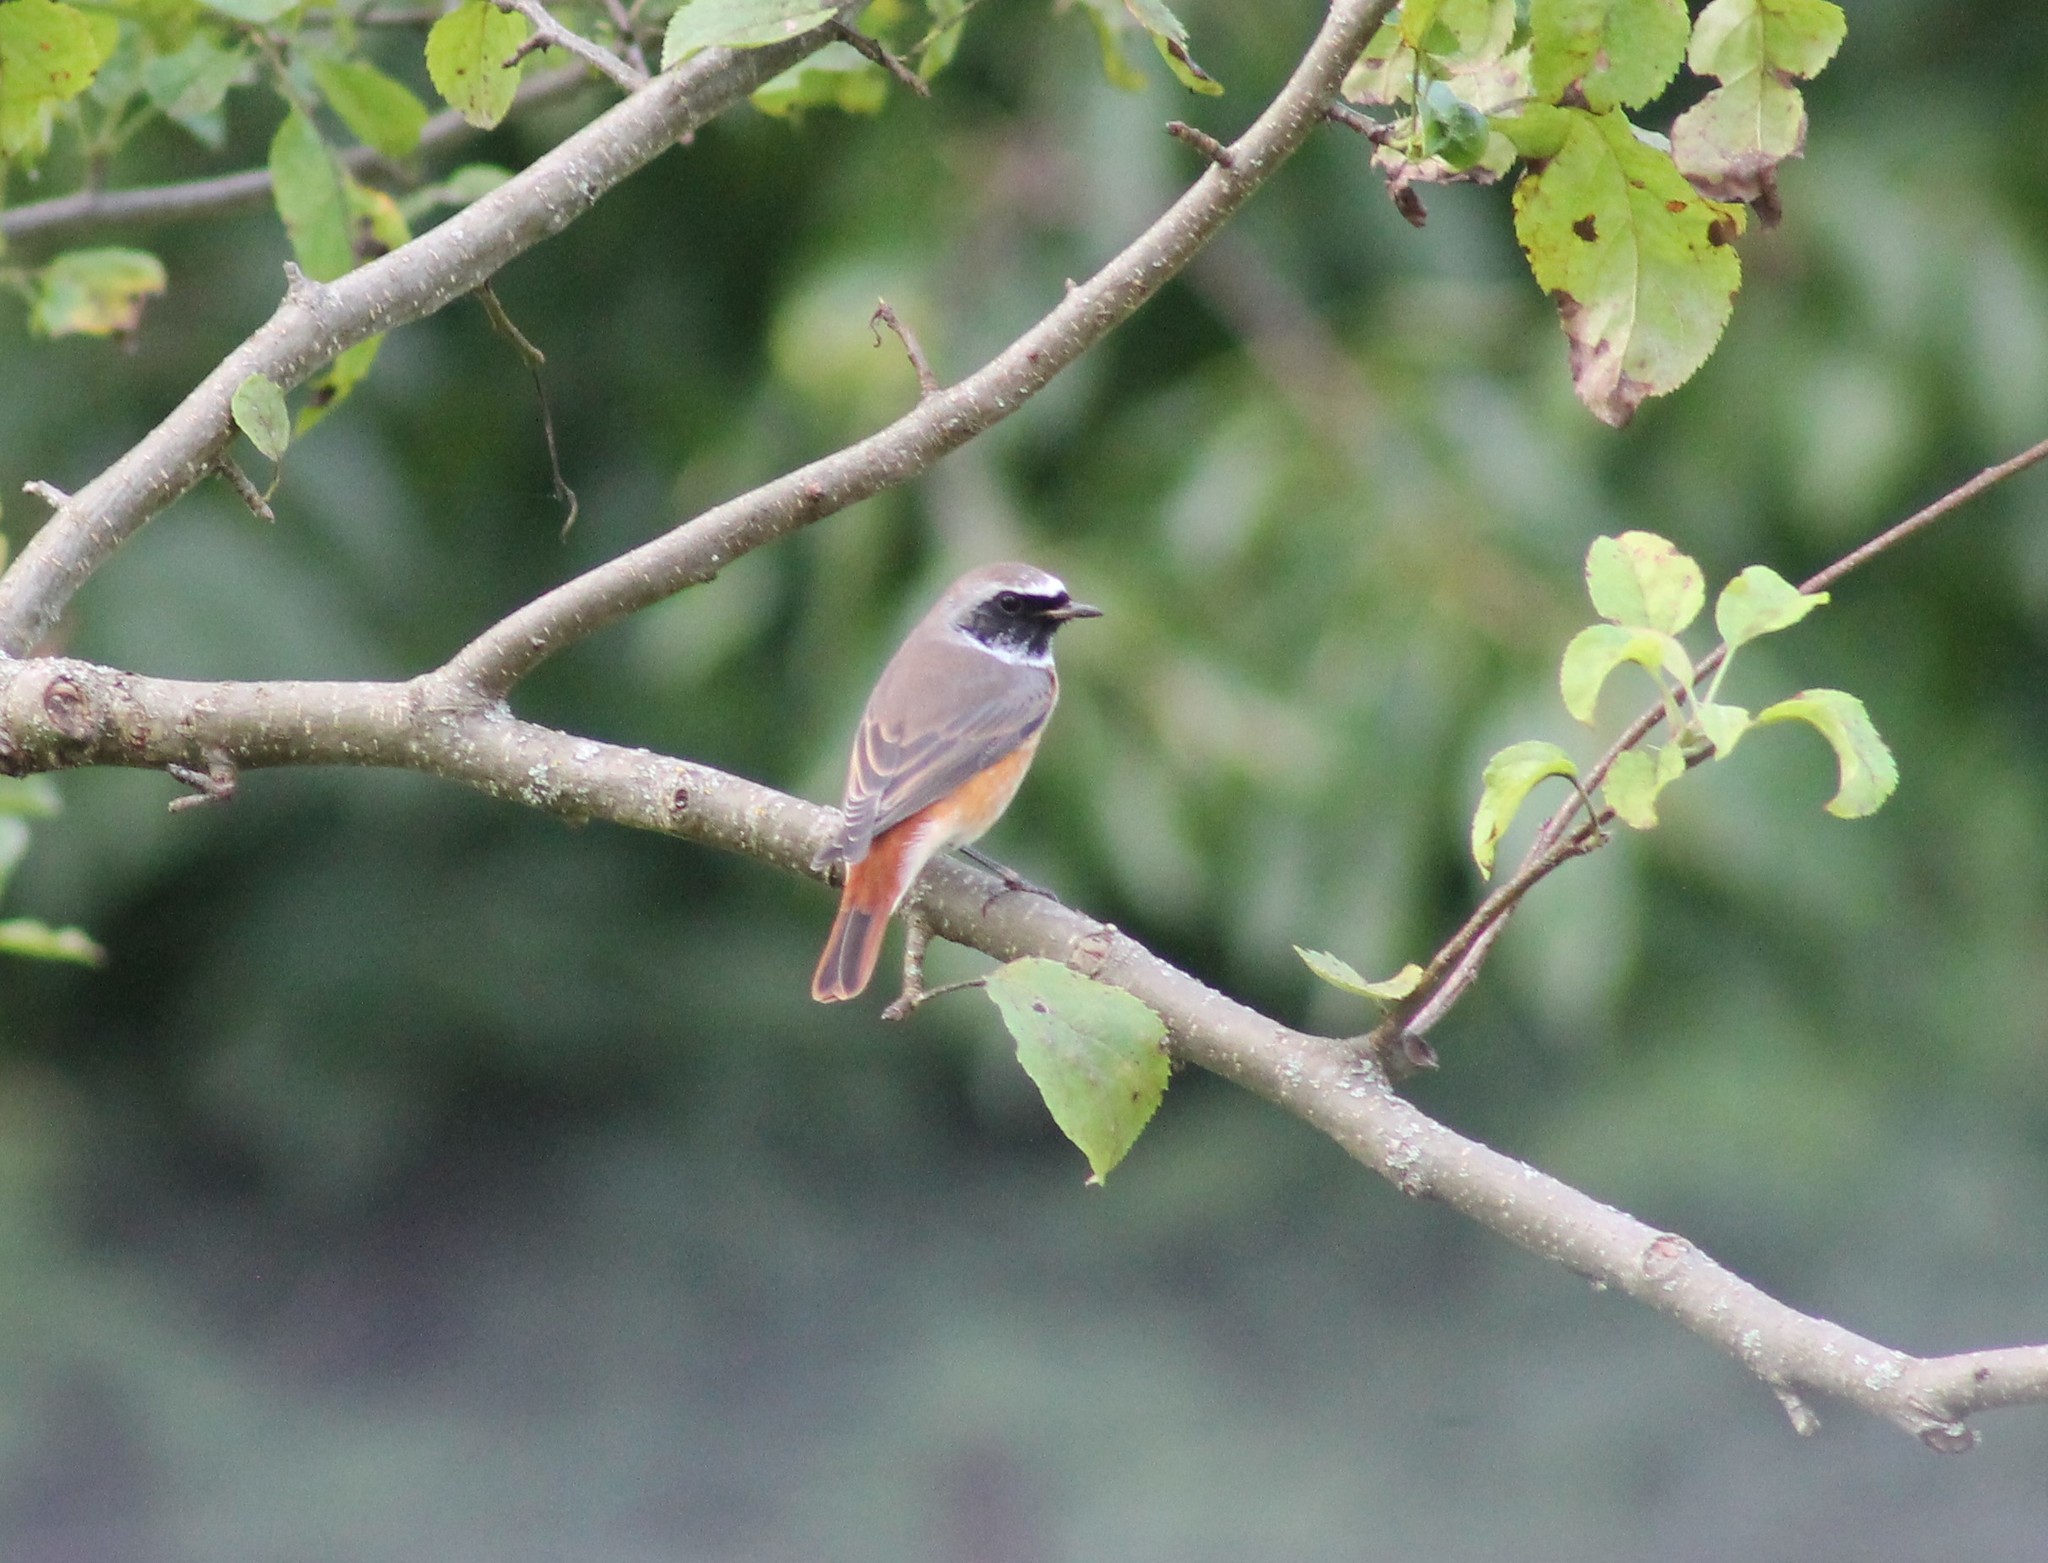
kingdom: Animalia
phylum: Chordata
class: Aves
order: Passeriformes
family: Muscicapidae
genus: Phoenicurus
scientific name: Phoenicurus phoenicurus
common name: Common redstart
